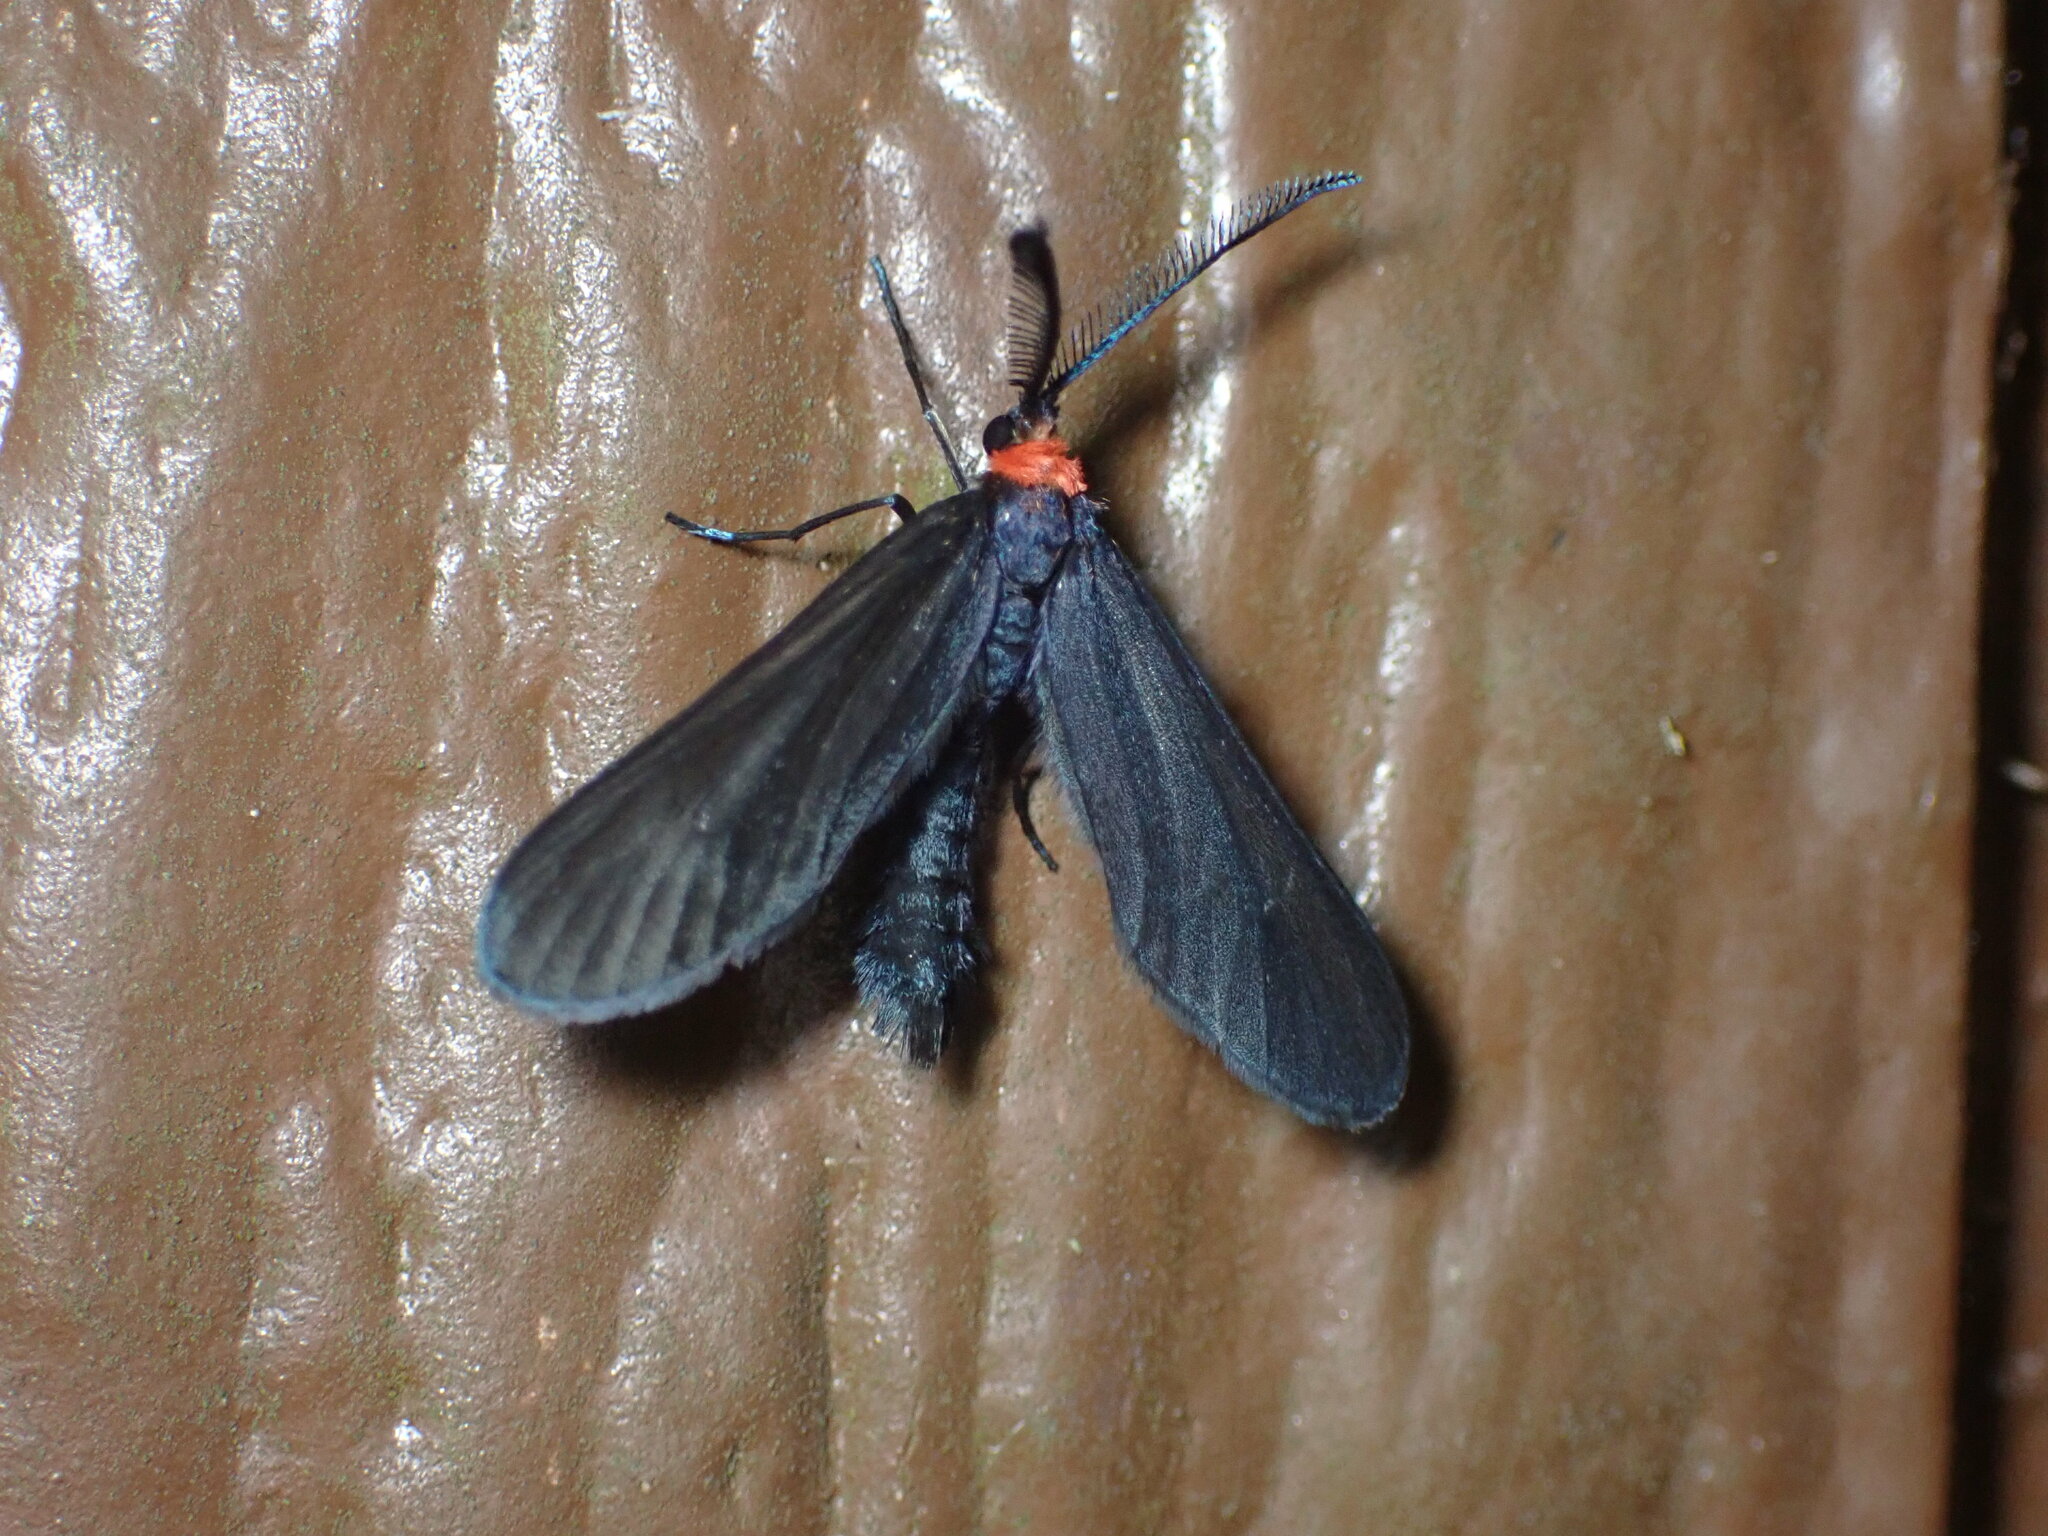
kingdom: Animalia
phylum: Arthropoda
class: Insecta
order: Lepidoptera
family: Zygaenidae
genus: Harrisina
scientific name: Harrisina americana
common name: Grapeleaf skeletonizer moth
